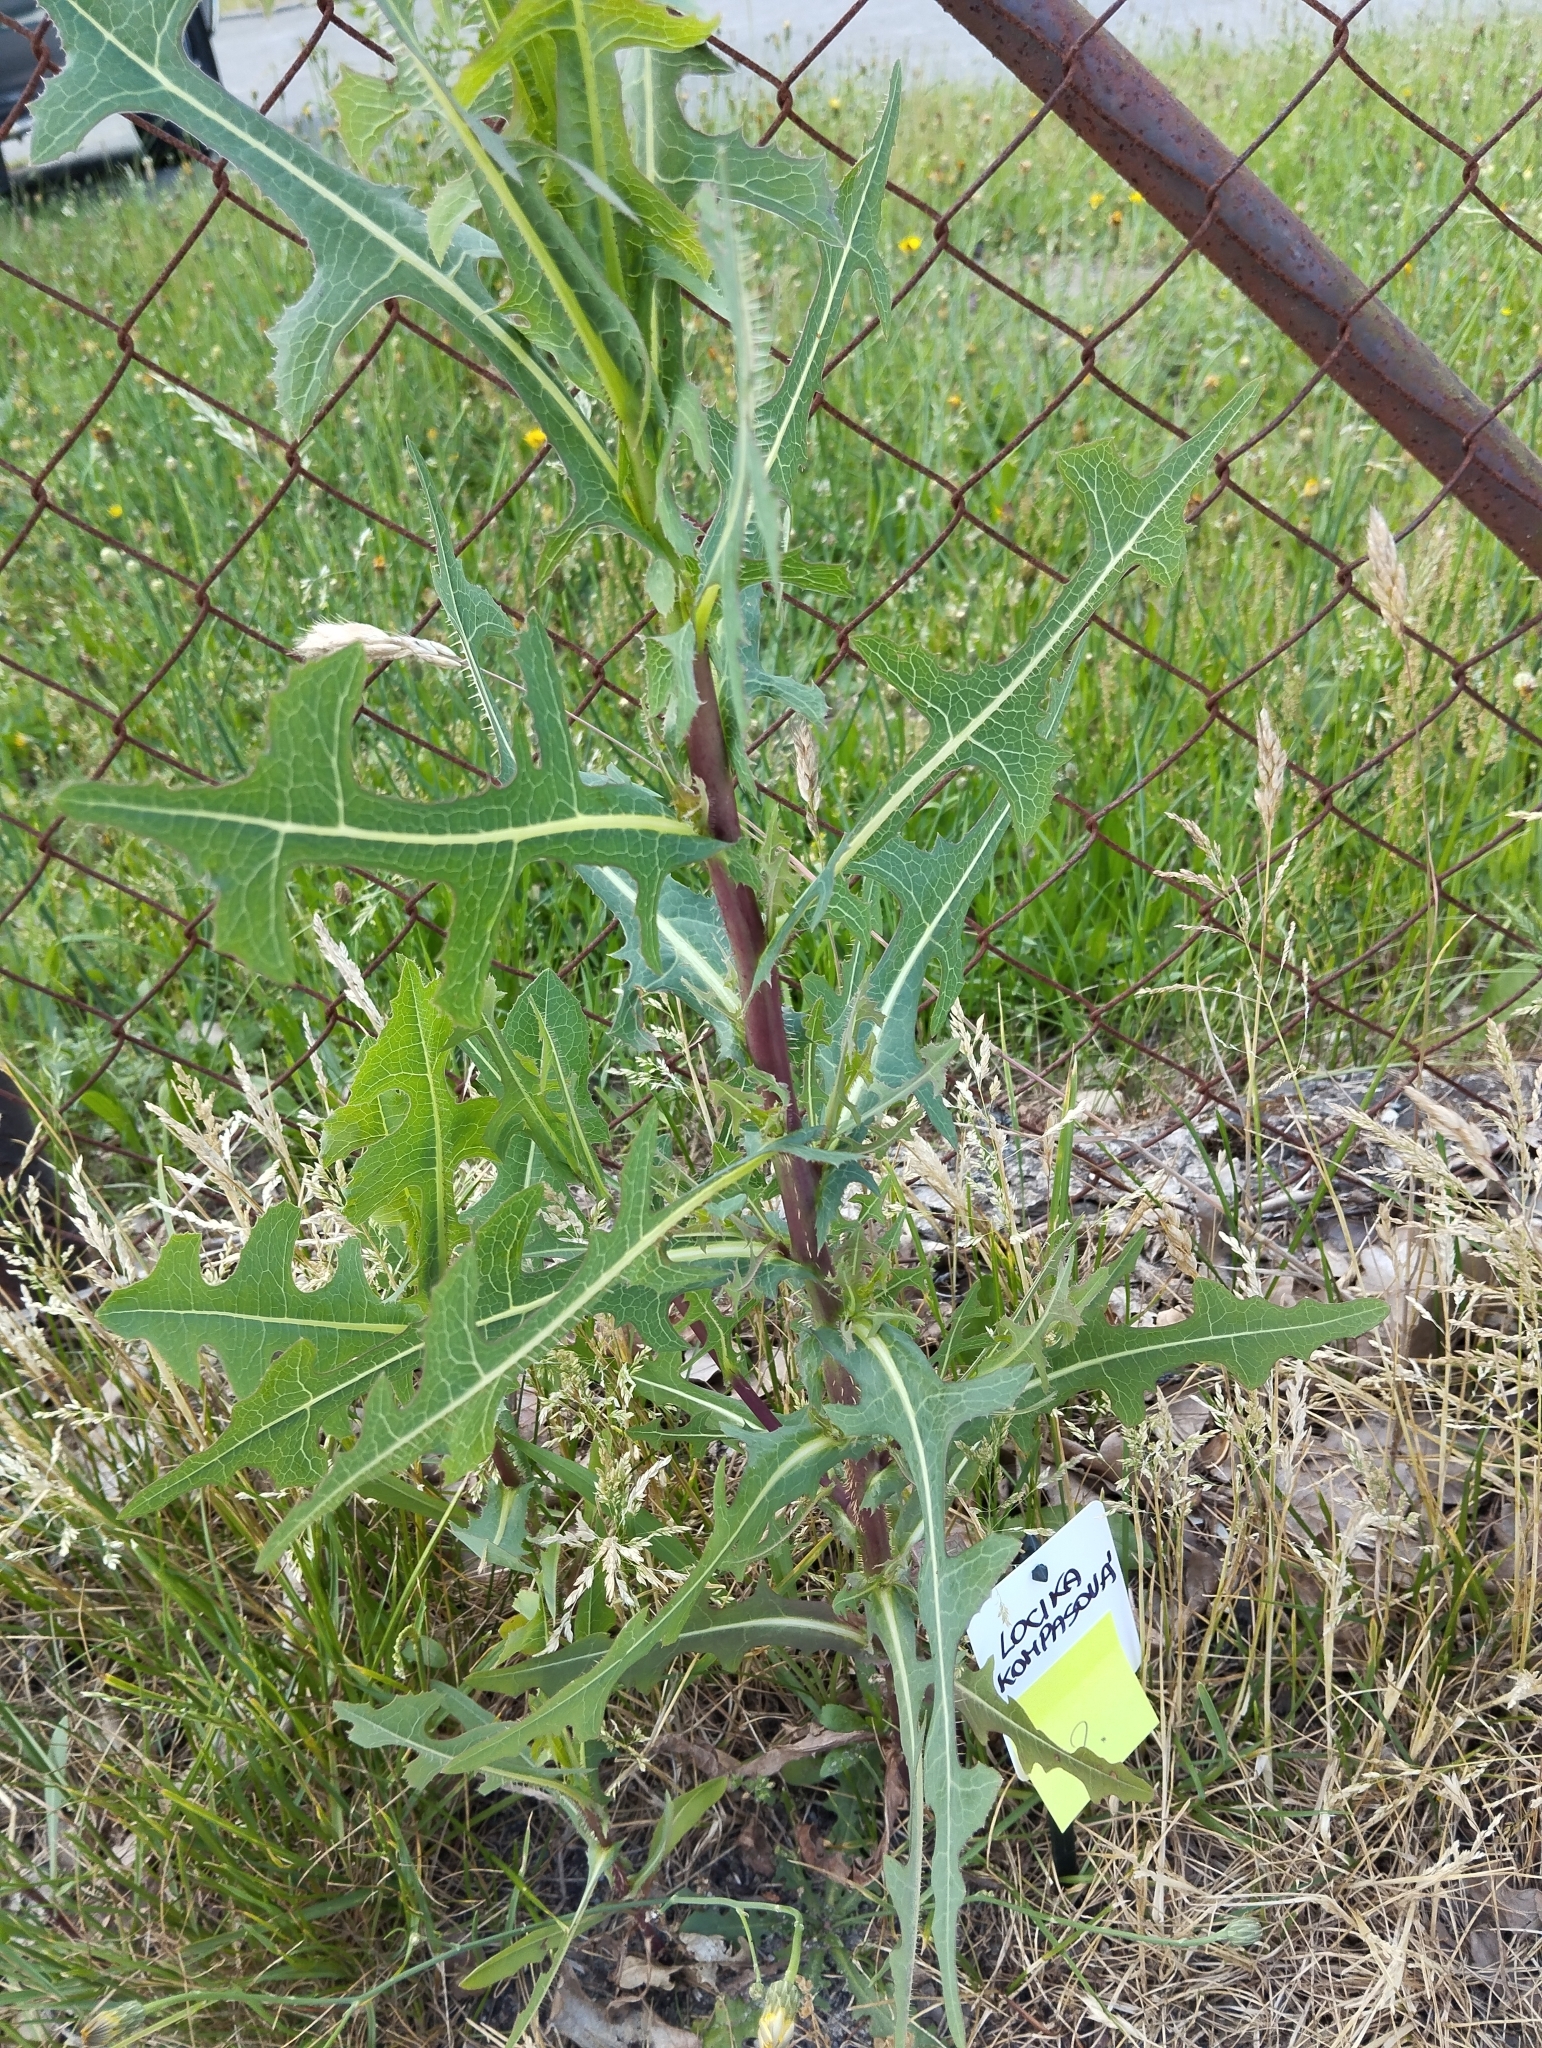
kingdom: Plantae
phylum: Tracheophyta
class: Magnoliopsida
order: Asterales
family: Asteraceae
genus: Lactuca
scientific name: Lactuca serriola
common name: Prickly lettuce
